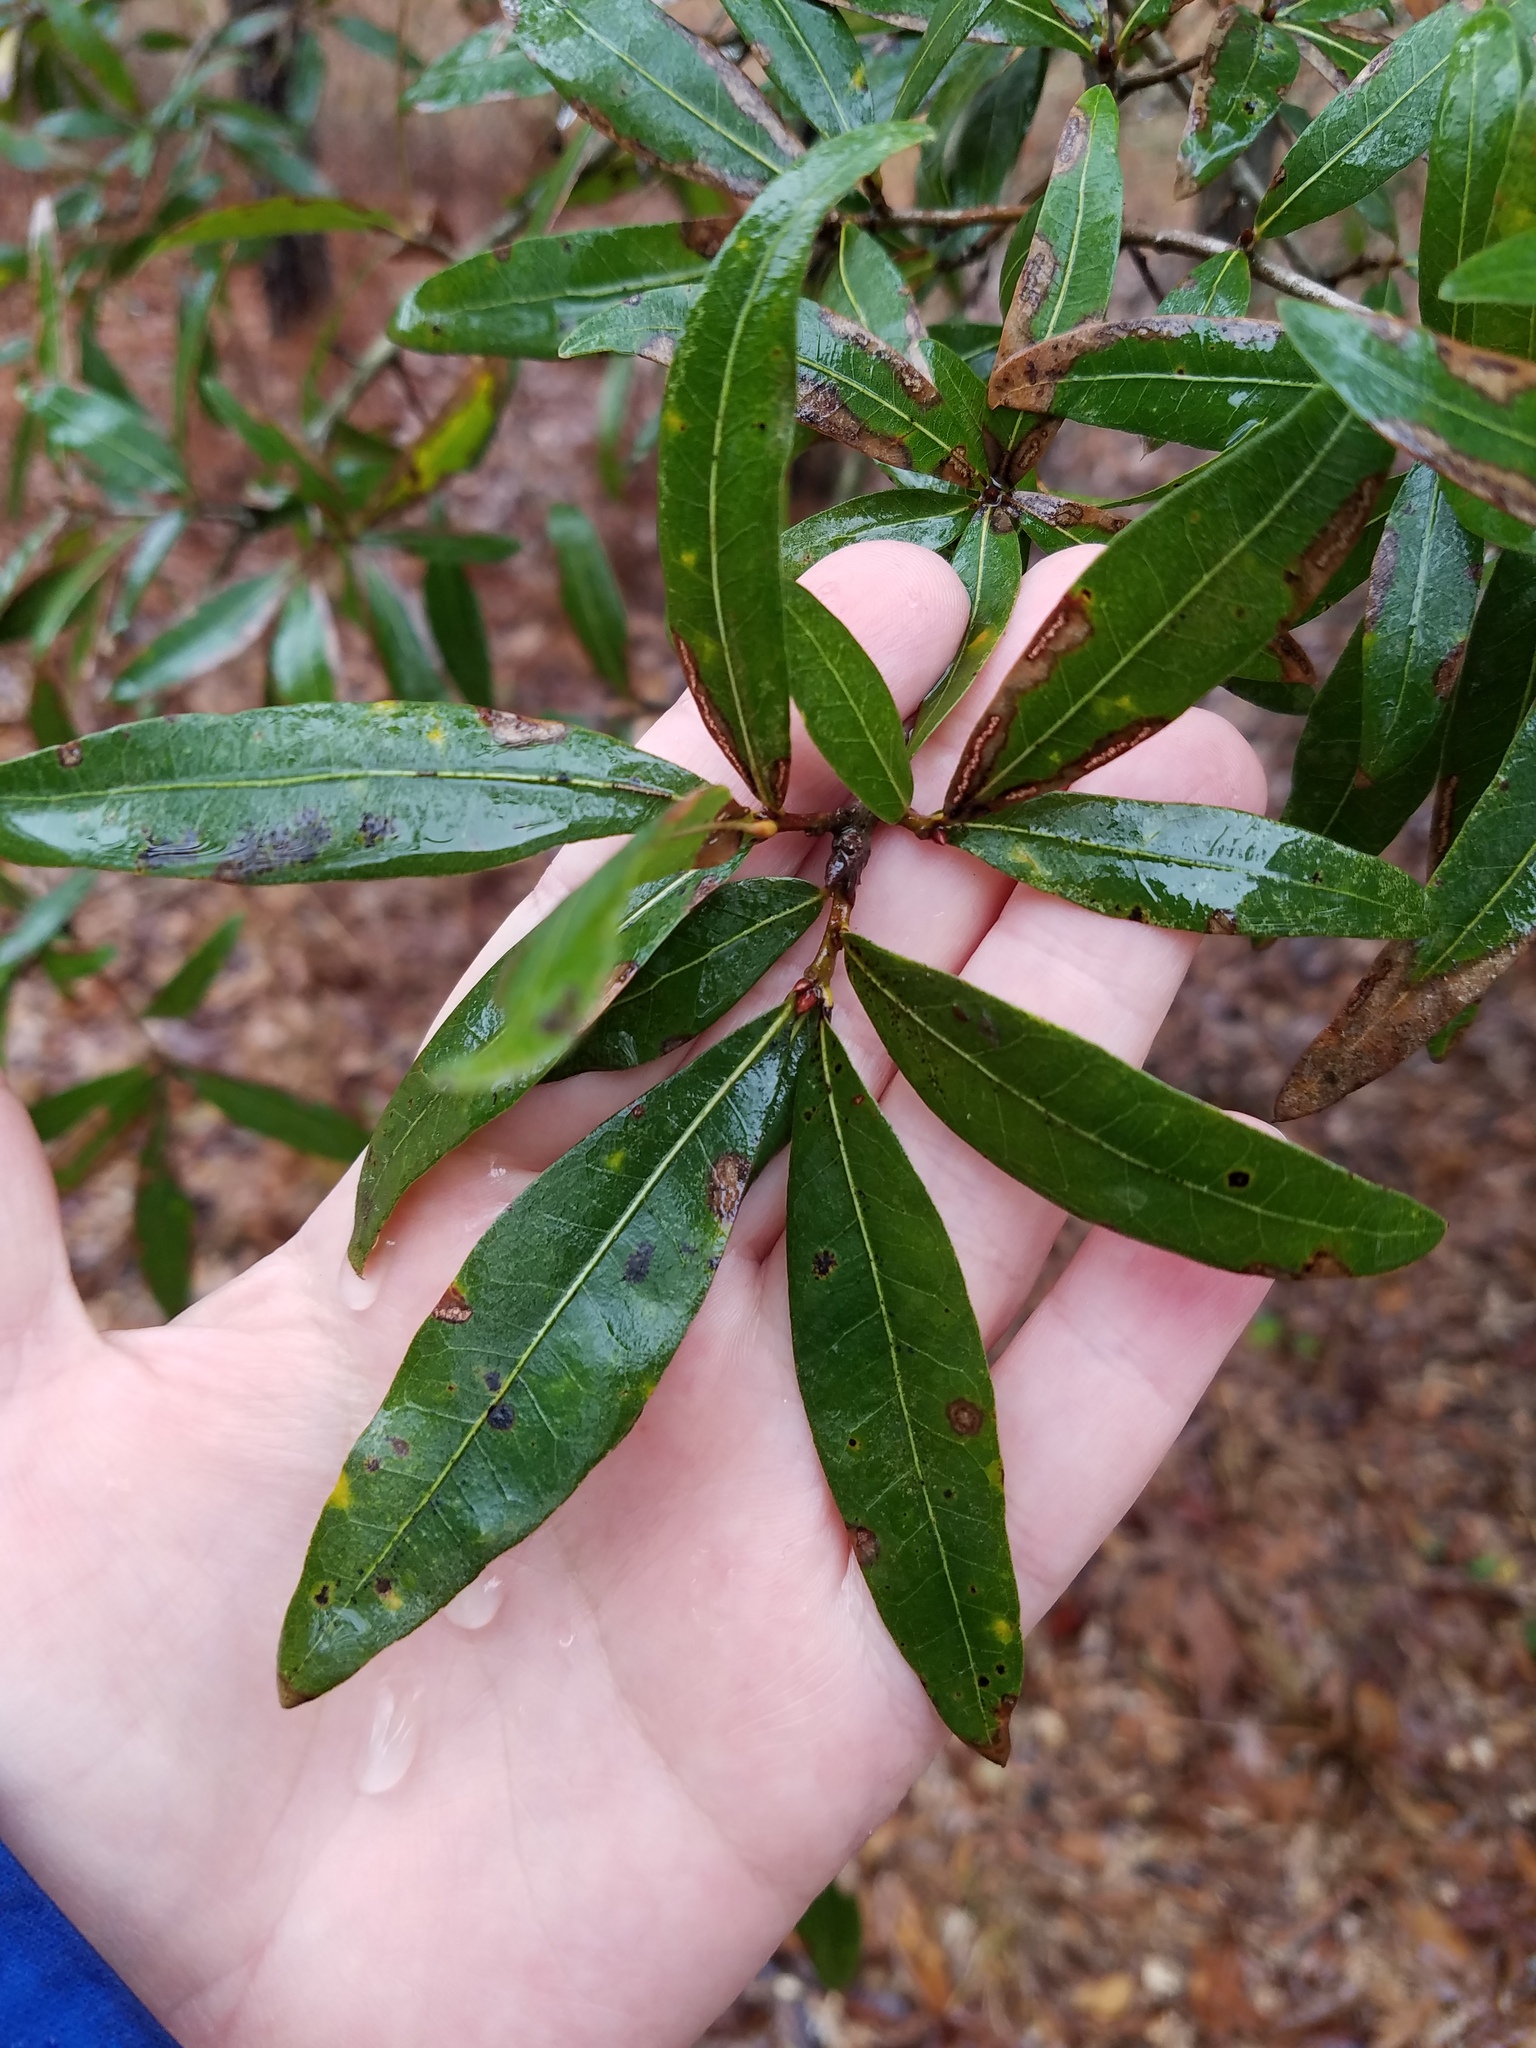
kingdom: Plantae
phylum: Tracheophyta
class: Magnoliopsida
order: Fagales
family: Fagaceae
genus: Quercus
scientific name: Quercus hemisphaerica
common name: Darlington oak
